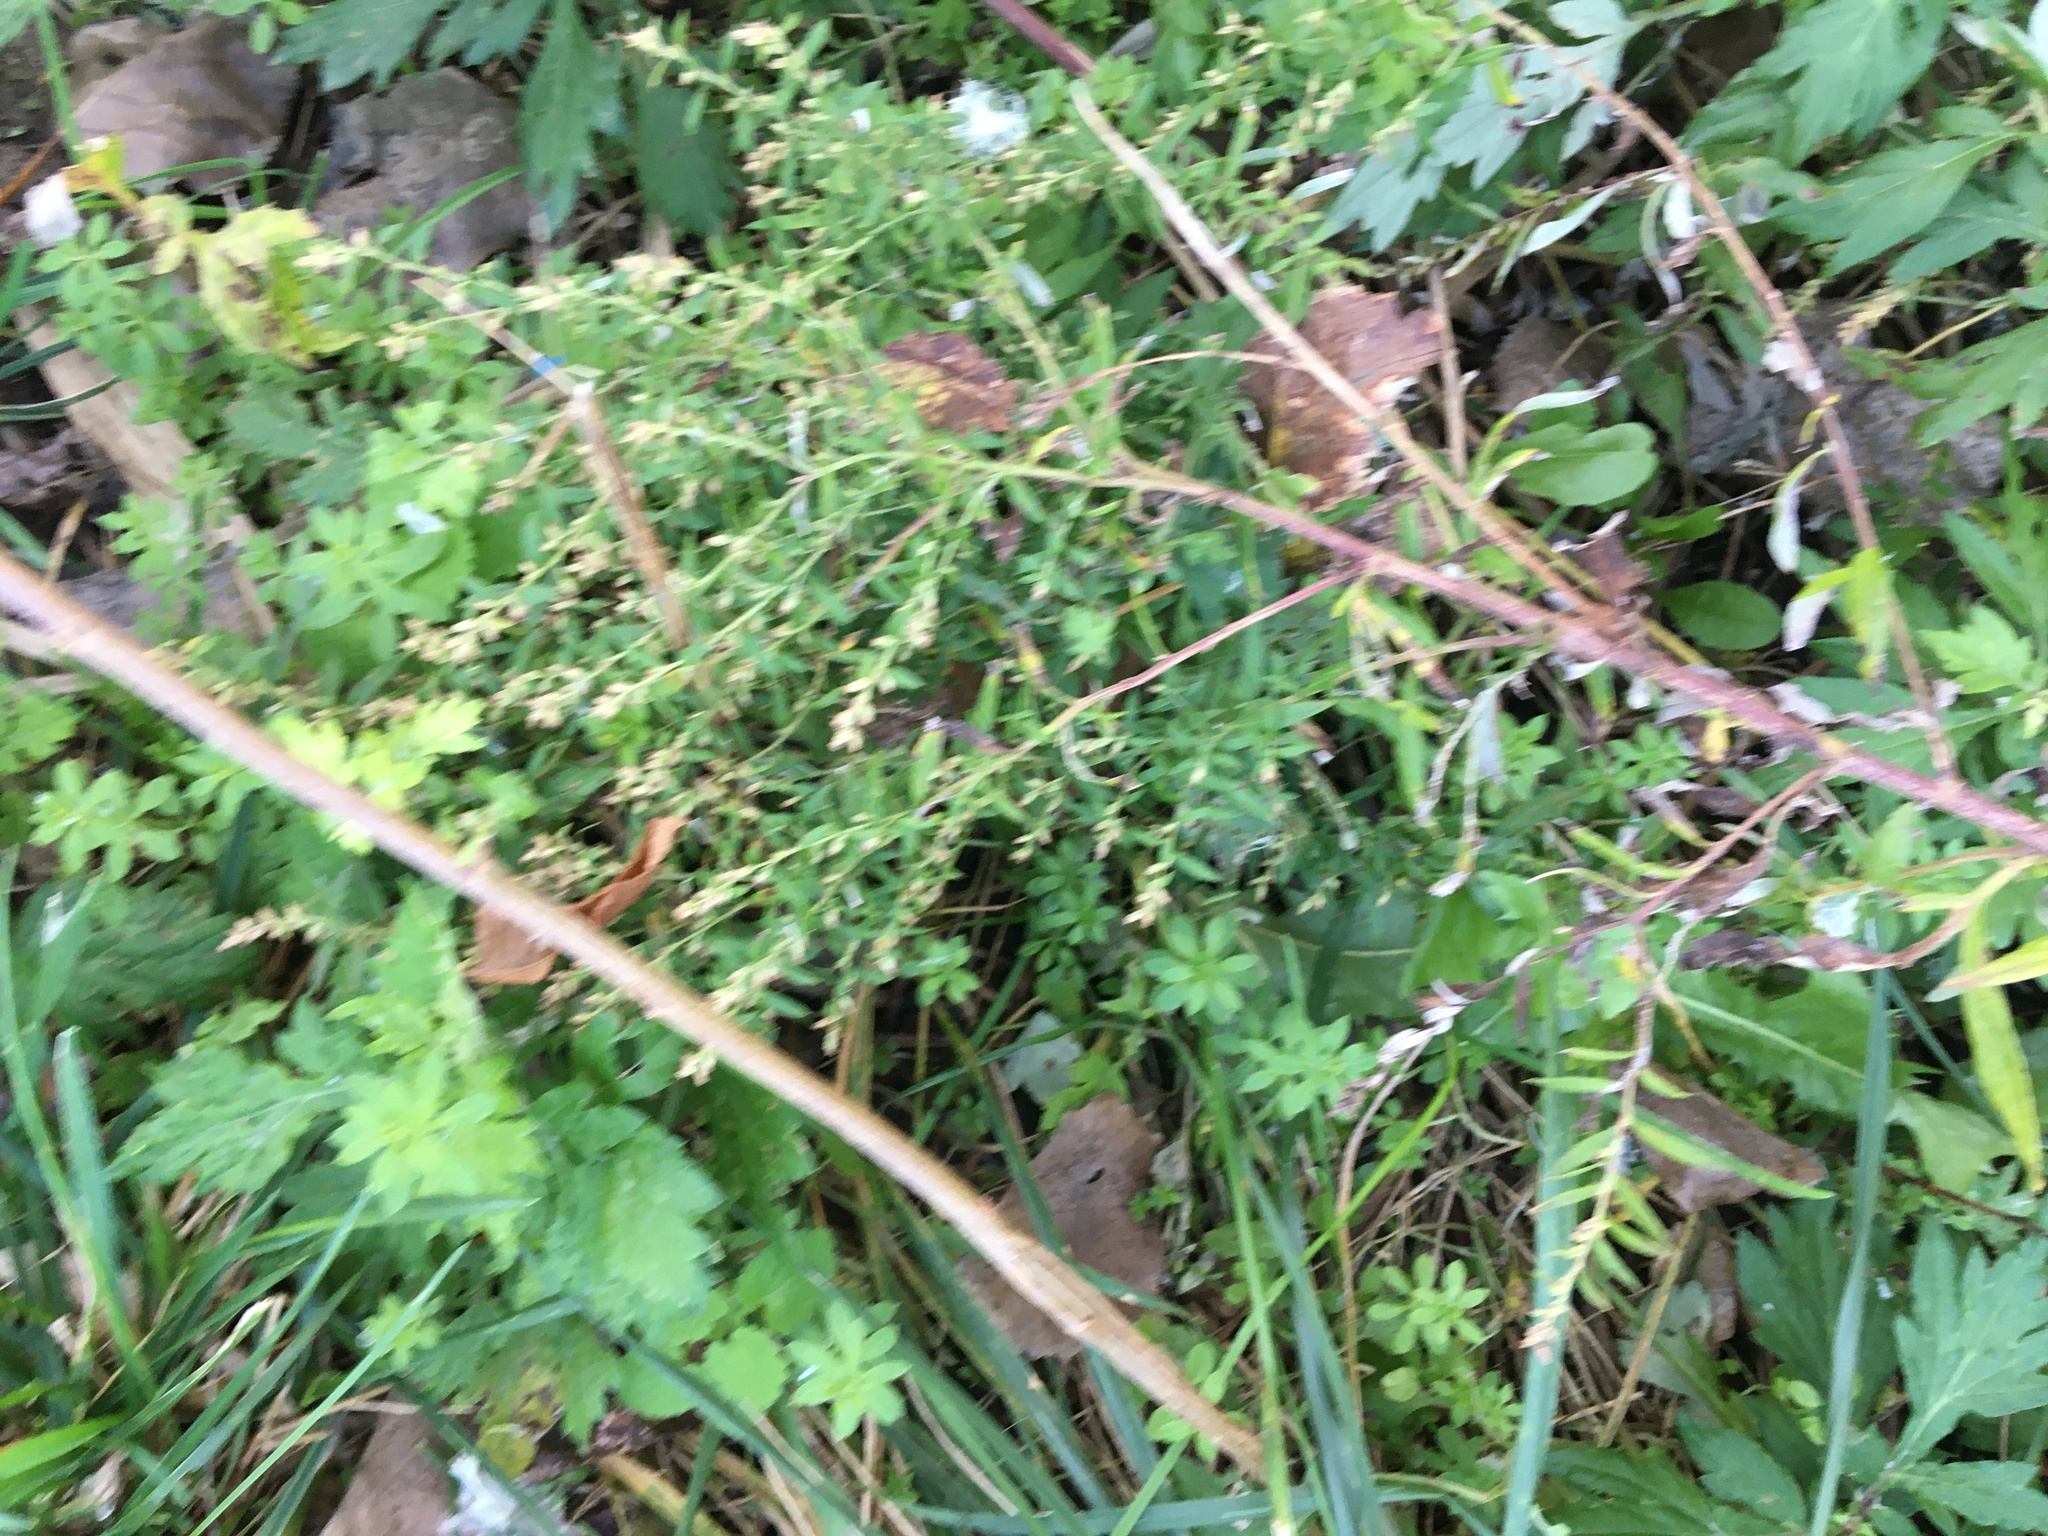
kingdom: Plantae
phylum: Tracheophyta
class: Magnoliopsida
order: Asterales
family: Asteraceae
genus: Artemisia
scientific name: Artemisia vulgaris
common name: Mugwort
